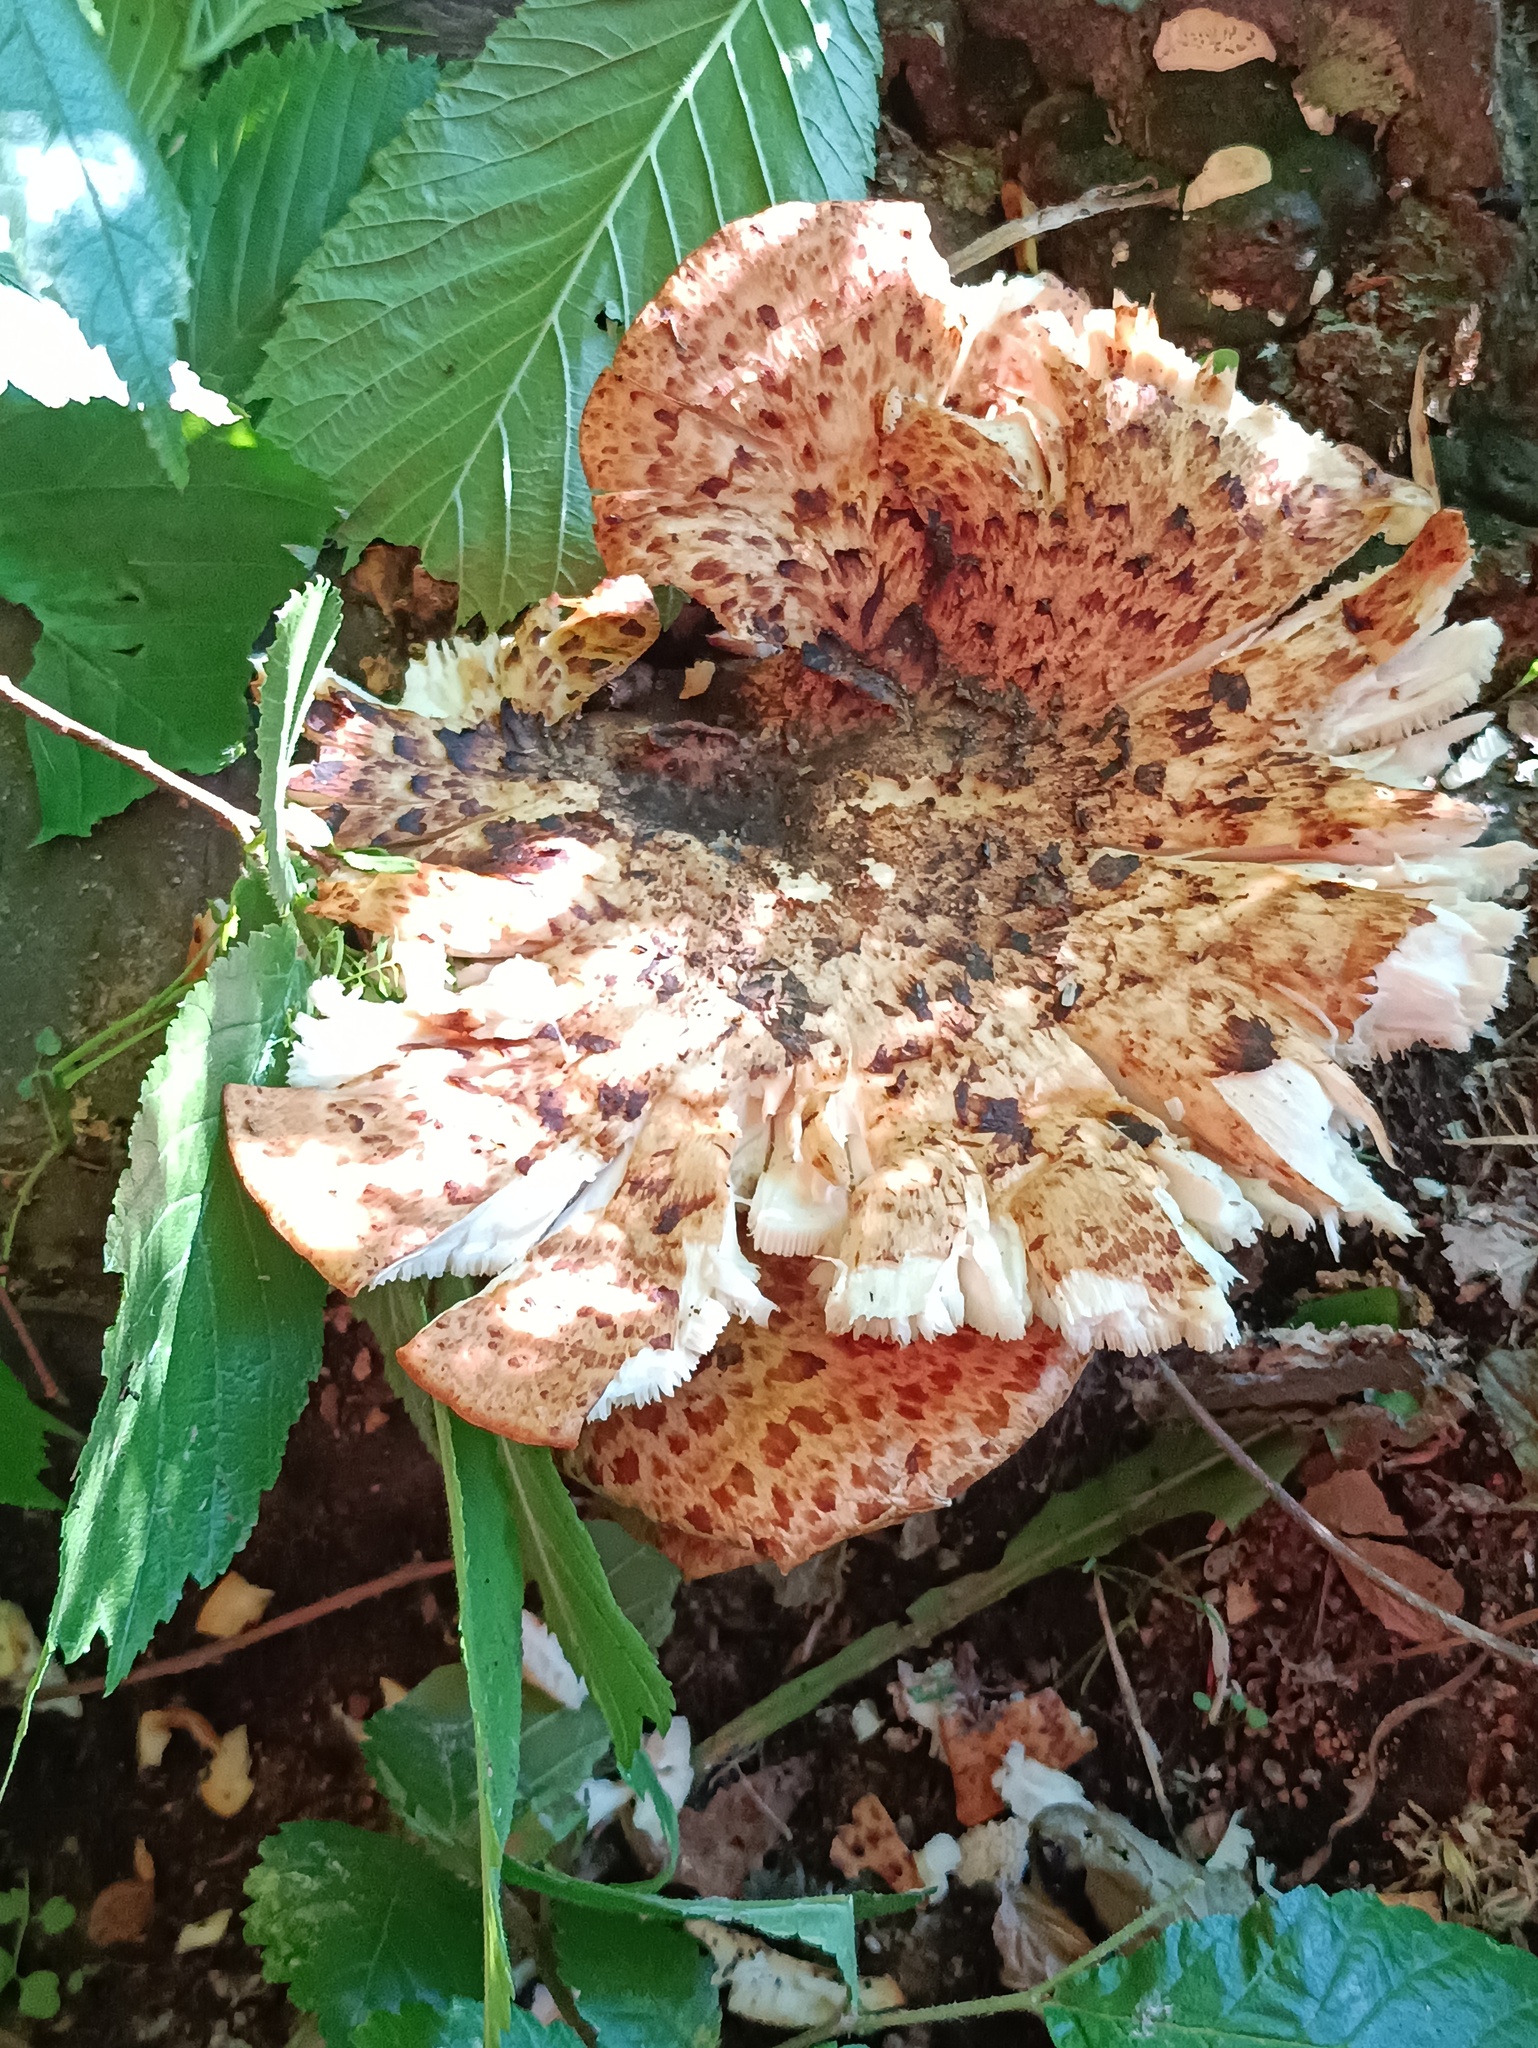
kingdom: Fungi
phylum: Basidiomycota
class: Agaricomycetes
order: Polyporales
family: Polyporaceae
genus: Cerioporus
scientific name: Cerioporus squamosus
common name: Dryad's saddle
